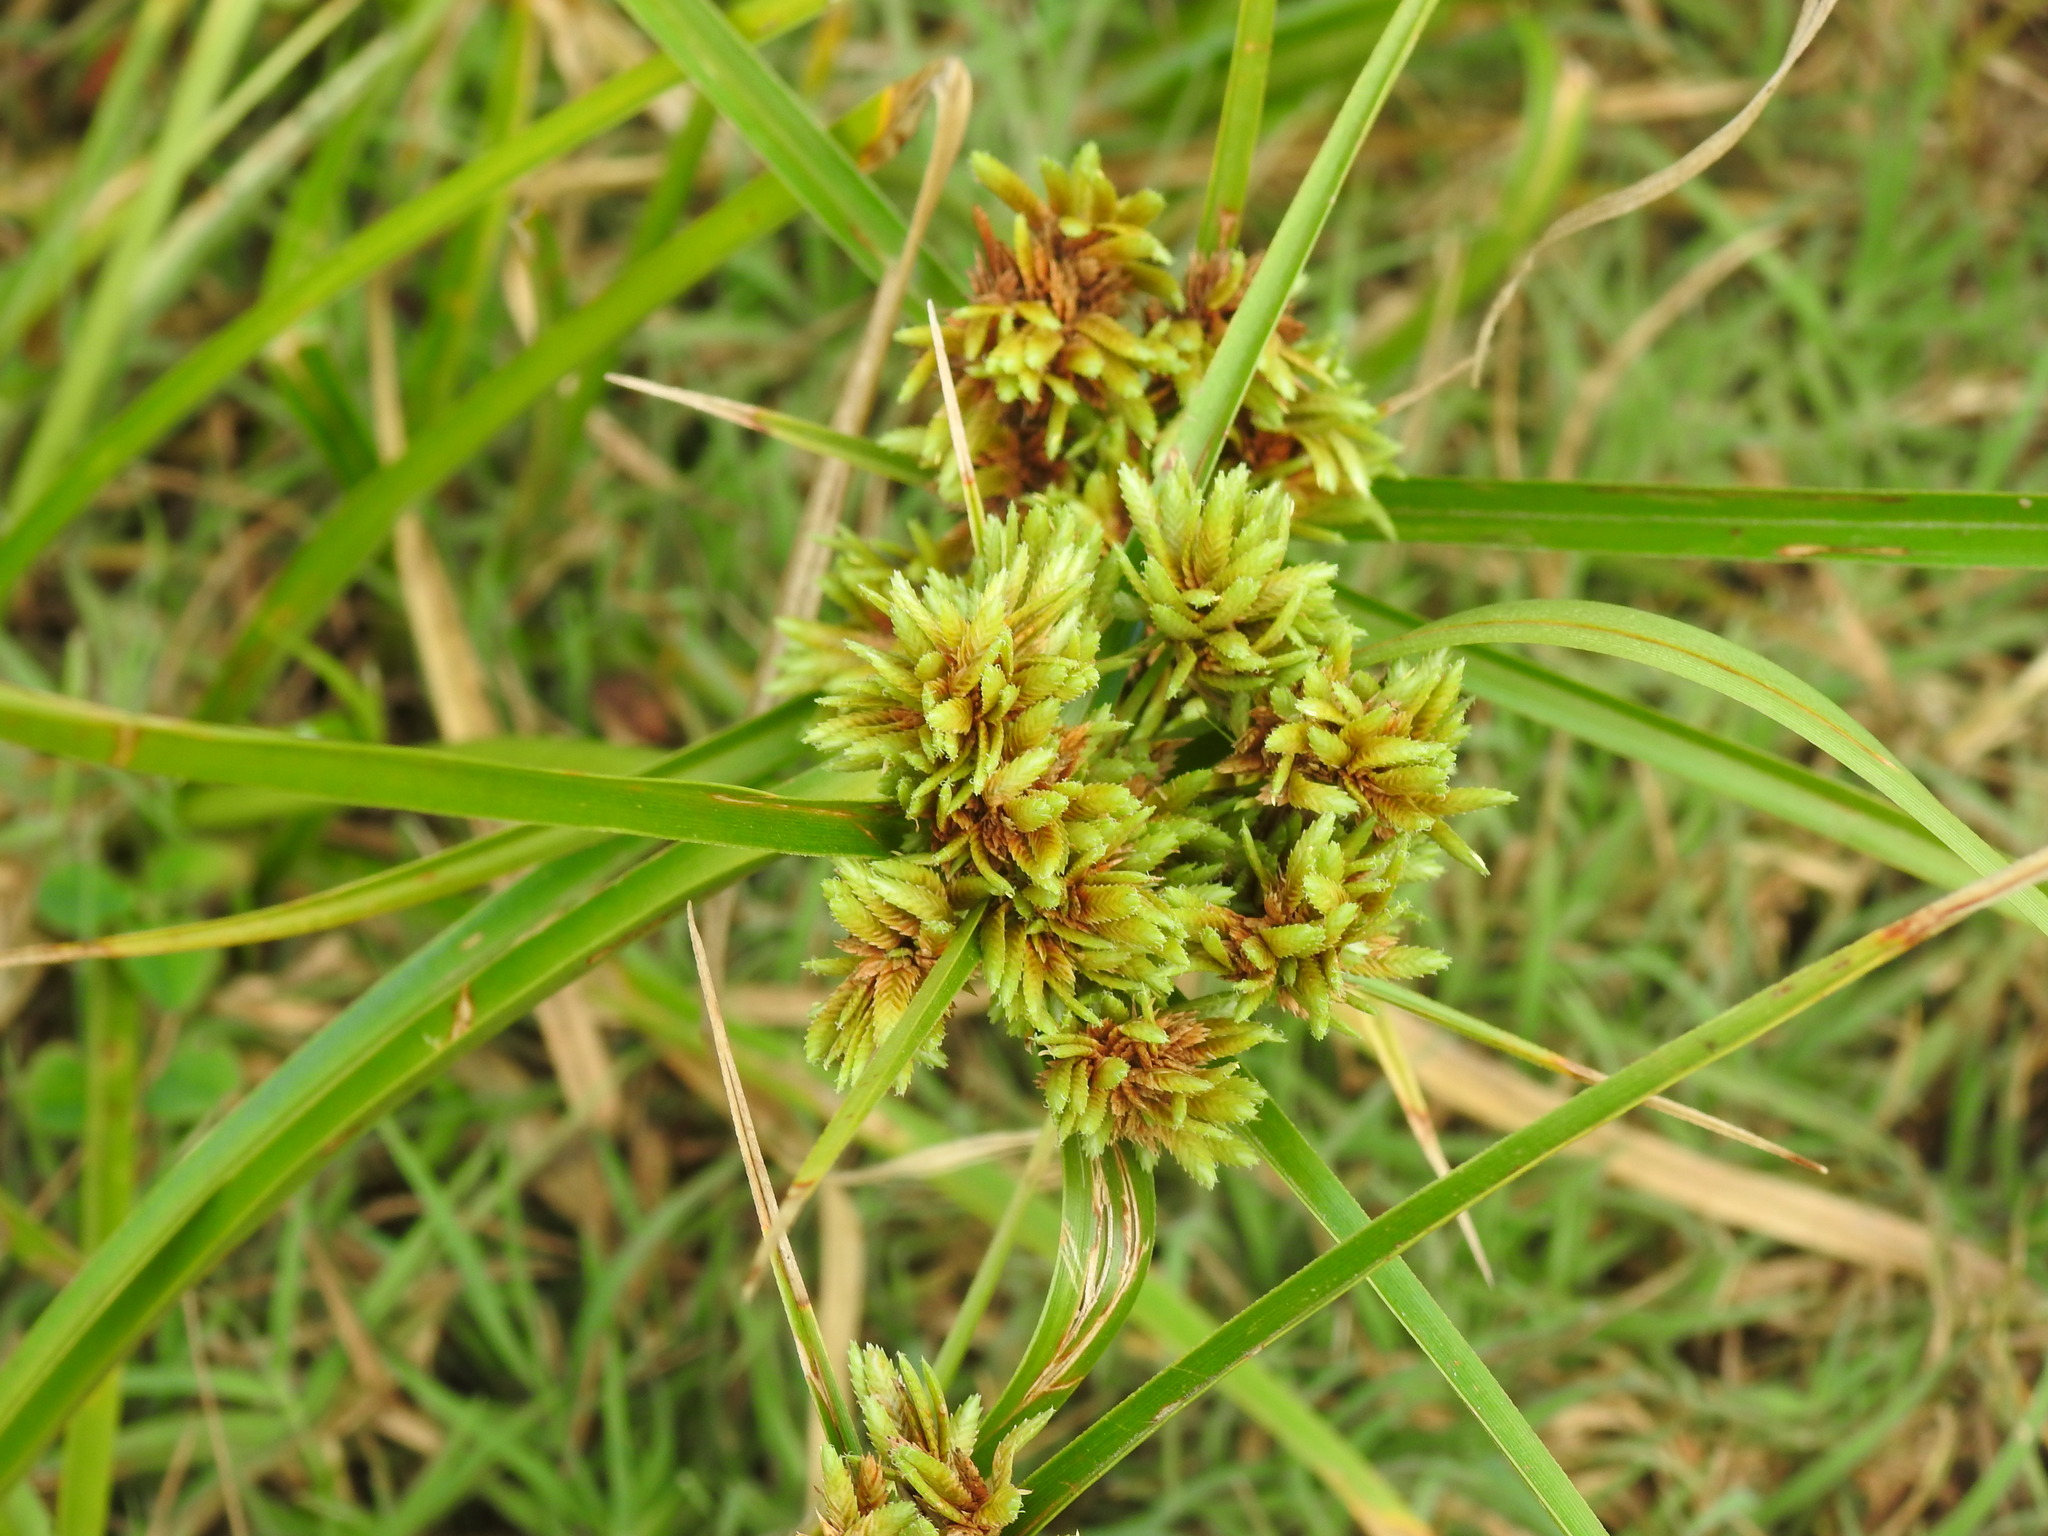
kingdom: Plantae
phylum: Tracheophyta
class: Liliopsida
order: Poales
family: Cyperaceae
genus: Cyperus
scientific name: Cyperus eragrostis
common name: Tall flatsedge
